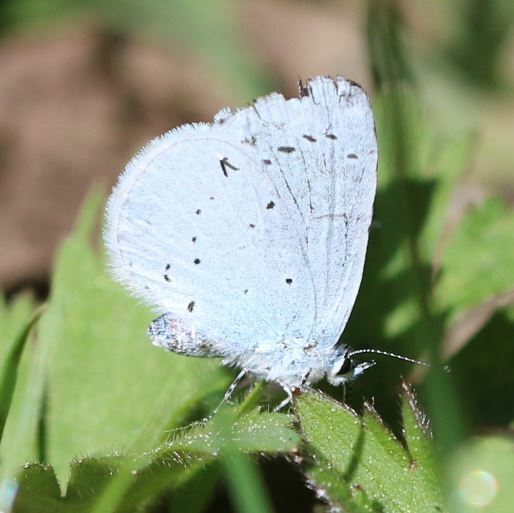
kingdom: Animalia
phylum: Arthropoda
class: Insecta
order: Lepidoptera
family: Lycaenidae
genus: Celastrina
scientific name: Celastrina argiolus
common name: Holly blue
